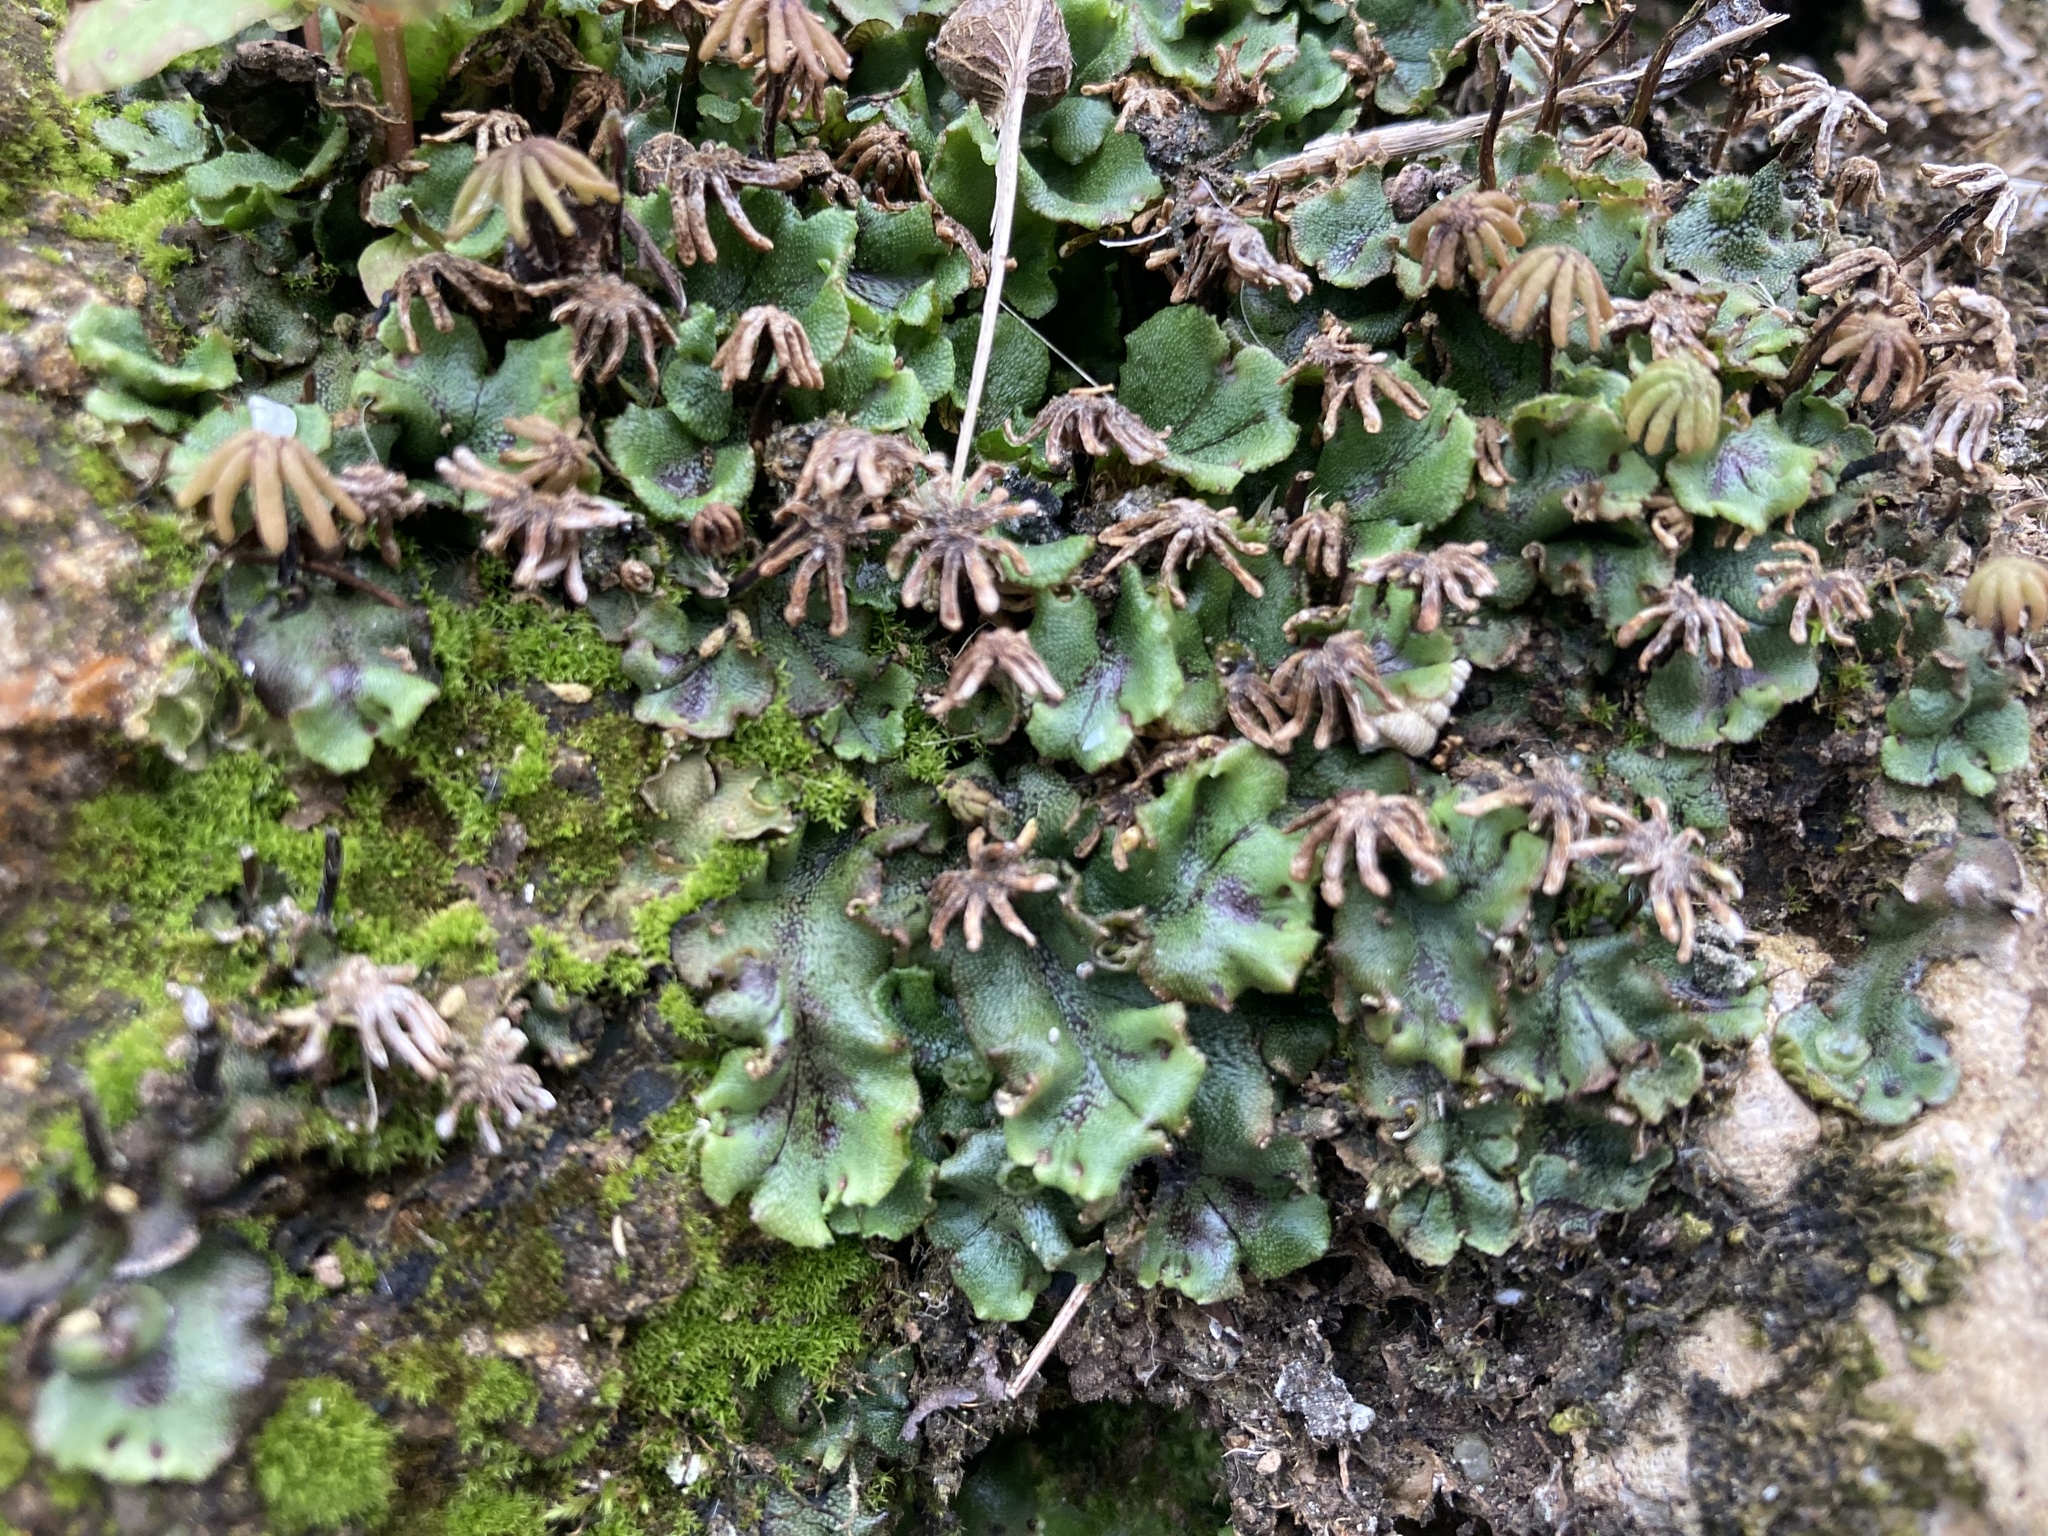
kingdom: Plantae
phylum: Marchantiophyta
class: Marchantiopsida
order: Marchantiales
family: Marchantiaceae
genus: Marchantia
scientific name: Marchantia polymorpha
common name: Common liverwort
